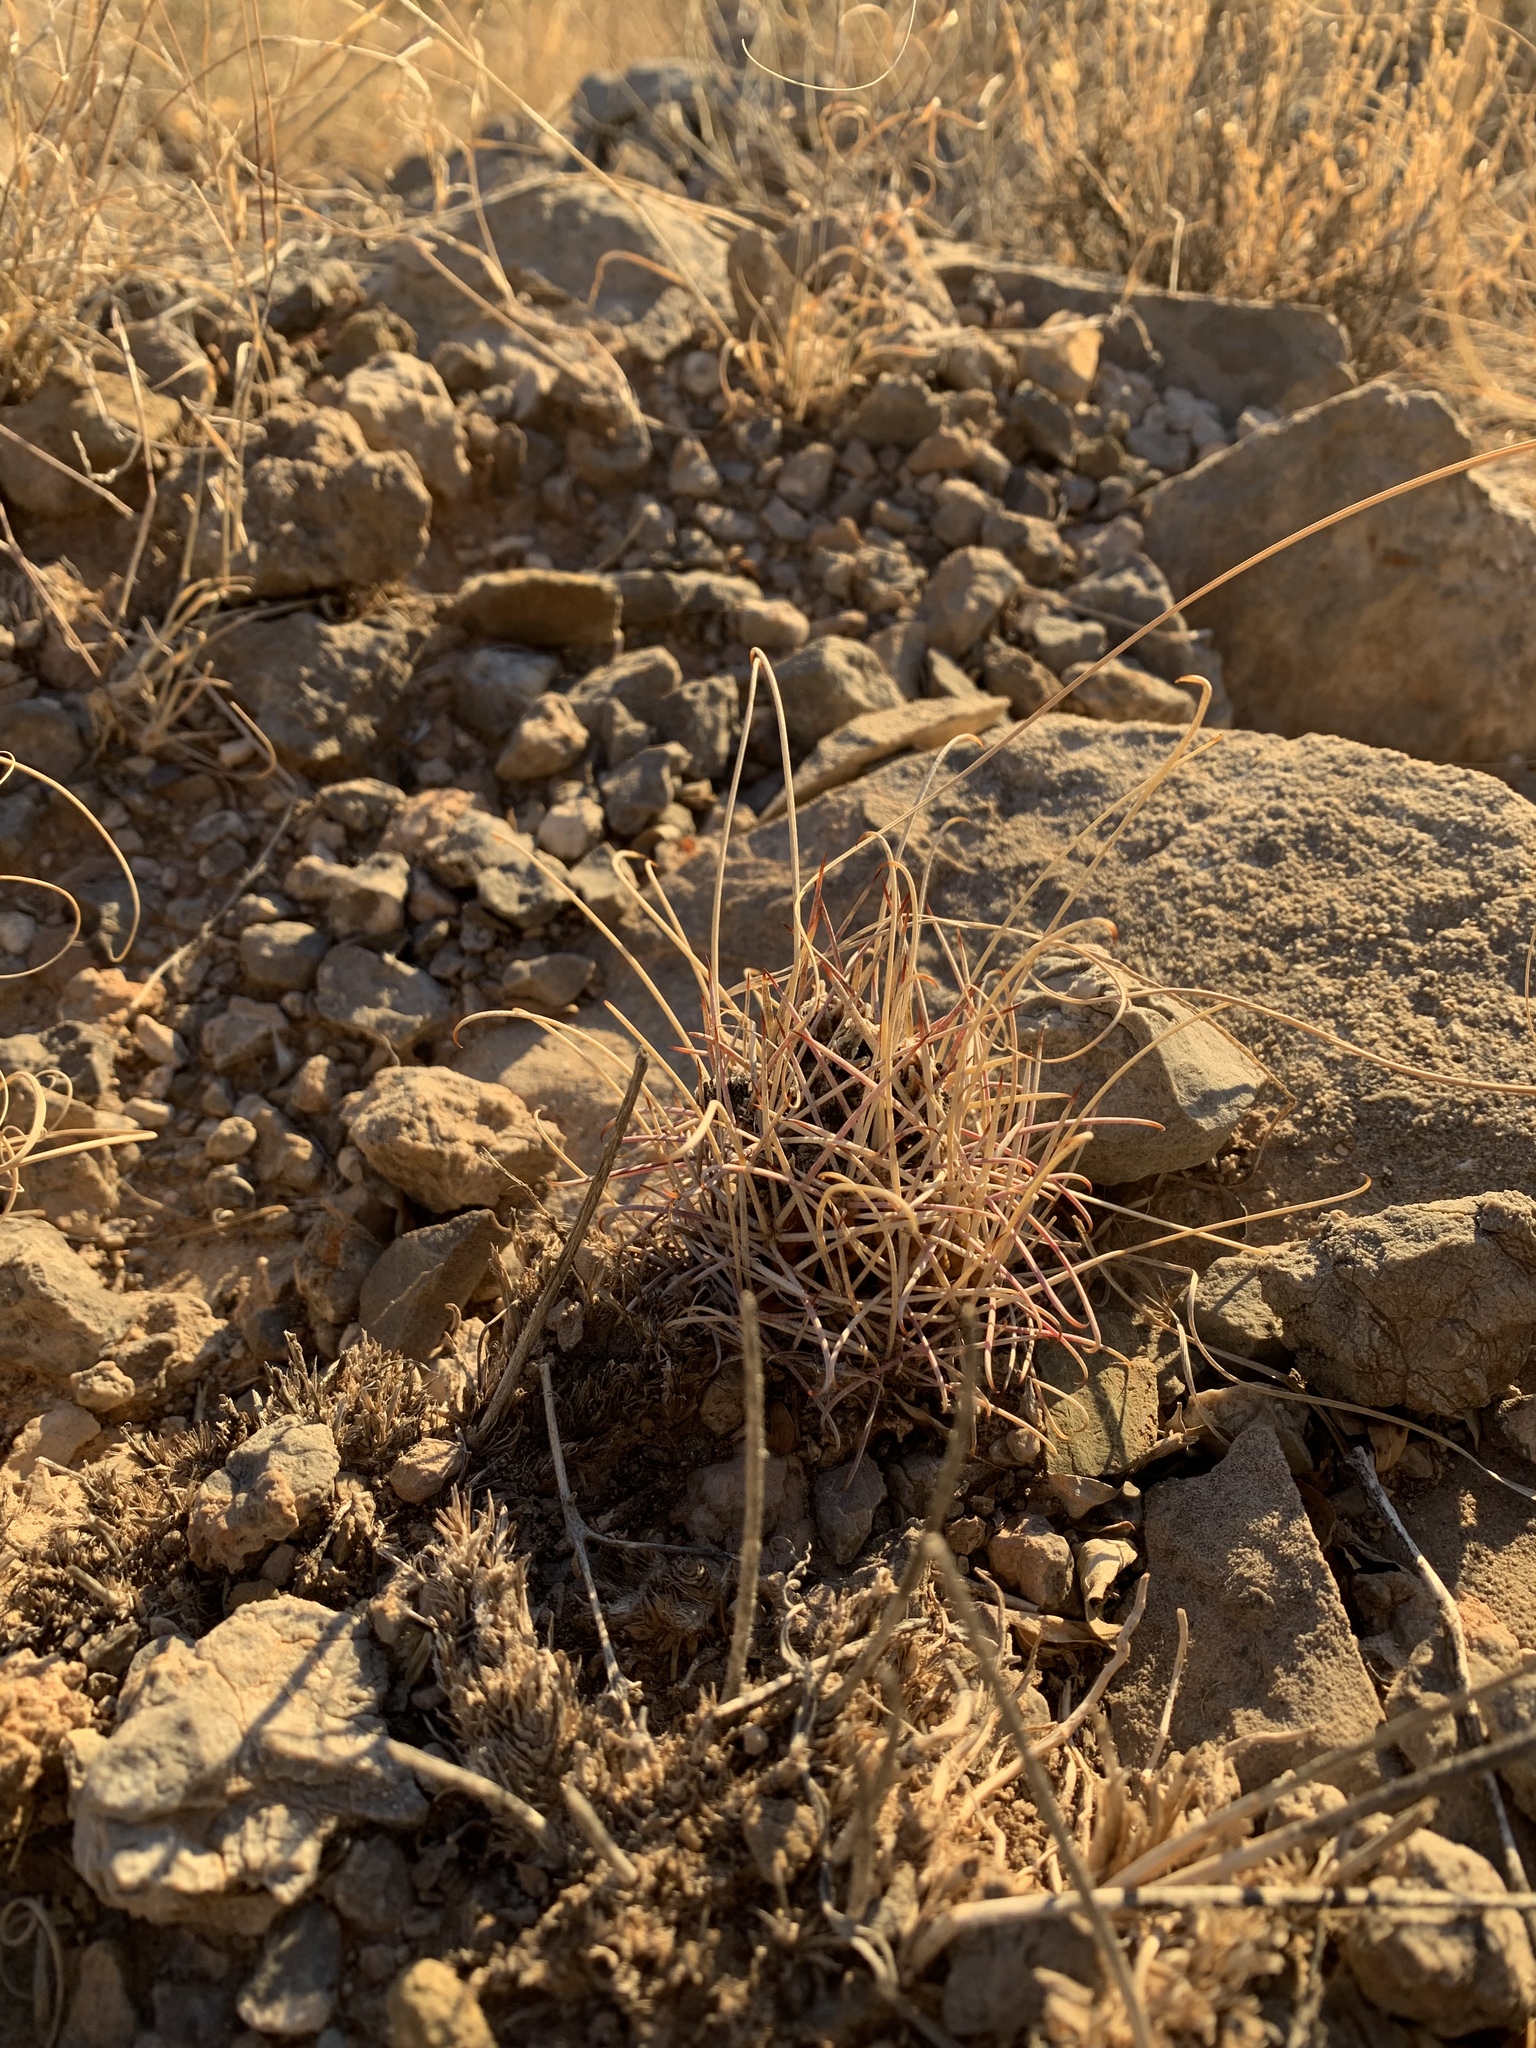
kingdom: Plantae
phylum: Tracheophyta
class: Magnoliopsida
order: Caryophyllales
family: Cactaceae
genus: Ferocactus
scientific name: Ferocactus uncinatus
